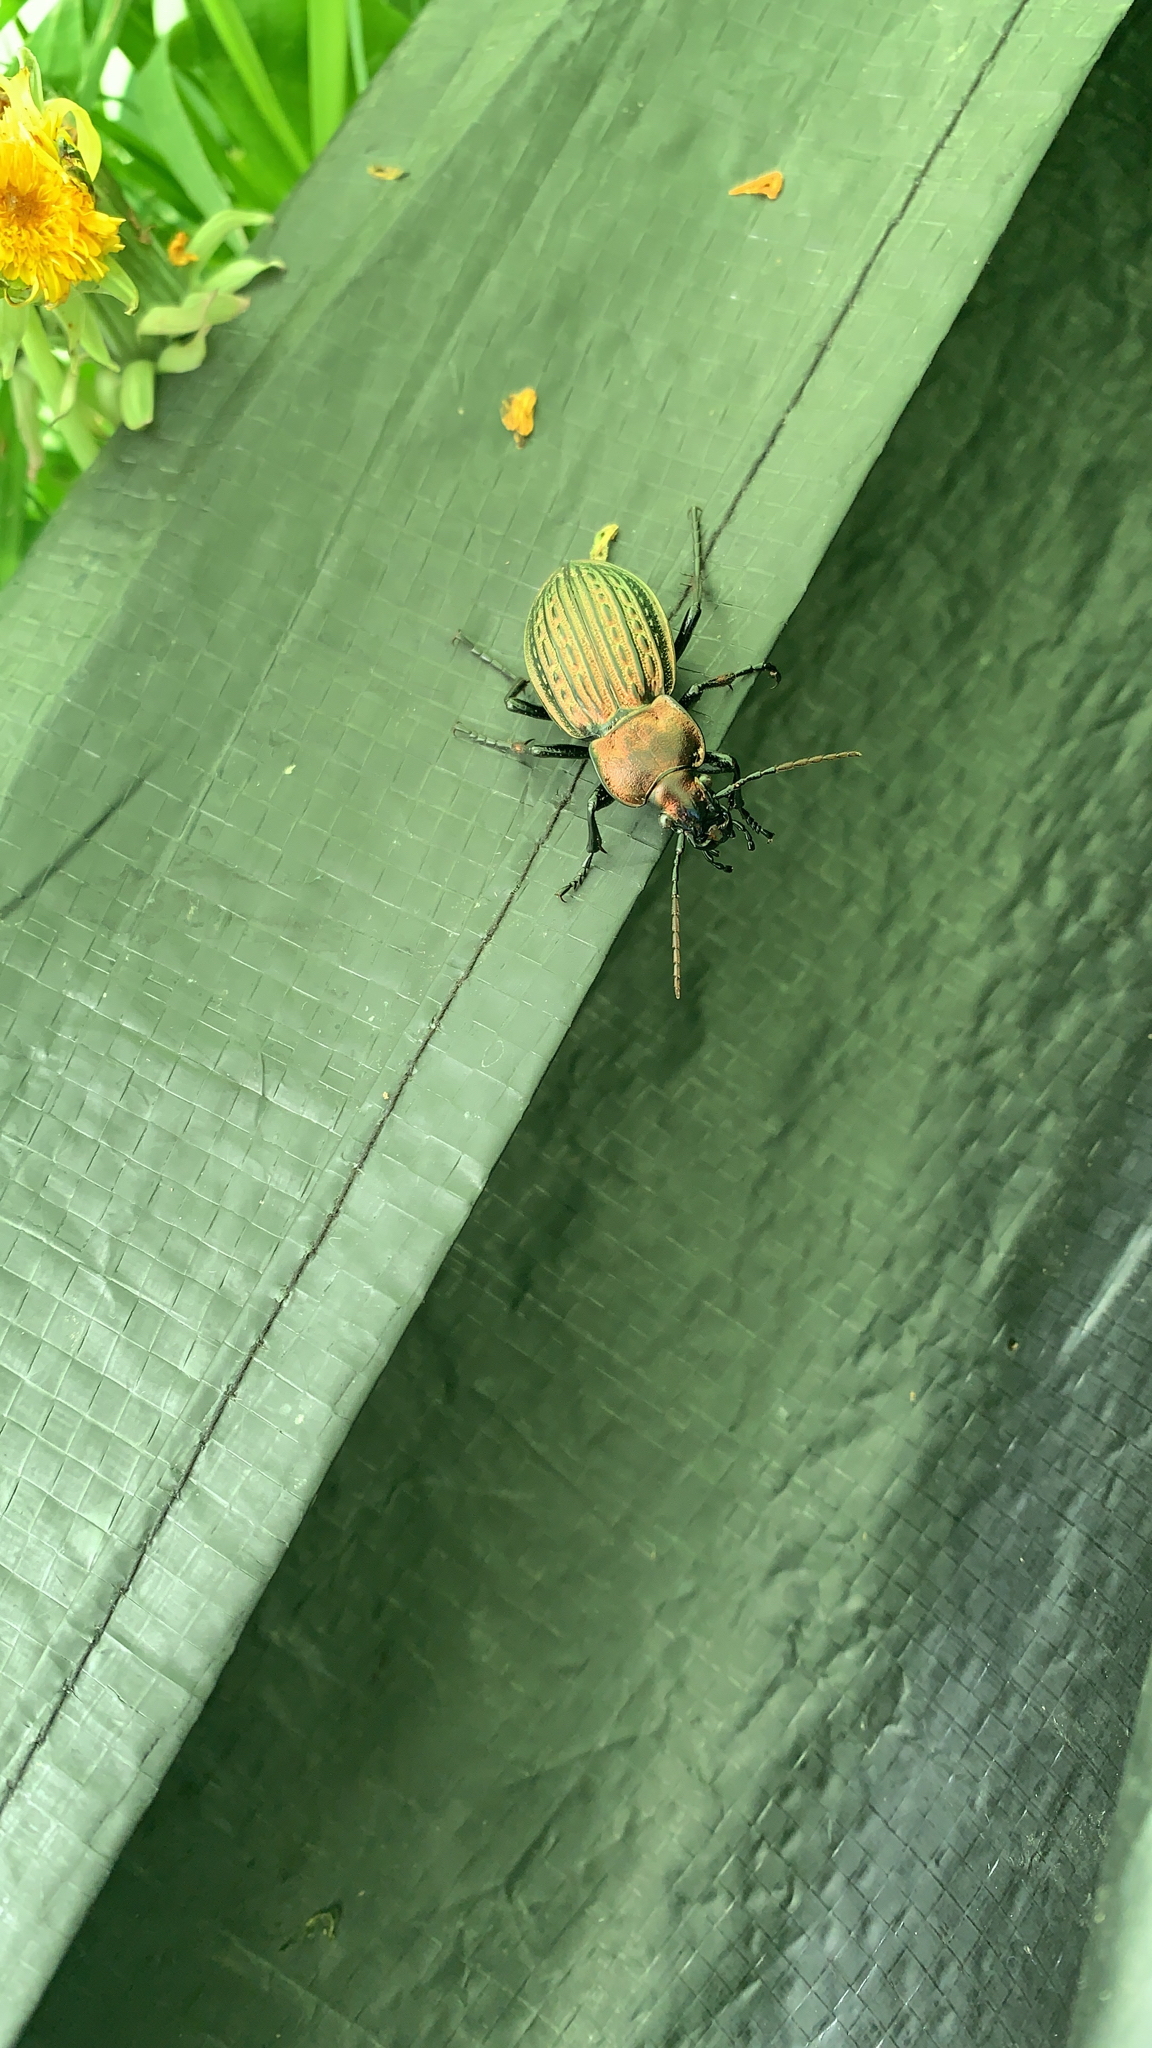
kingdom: Animalia
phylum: Arthropoda
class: Insecta
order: Coleoptera
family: Carabidae
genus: Carabus
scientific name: Carabus ulrichii
